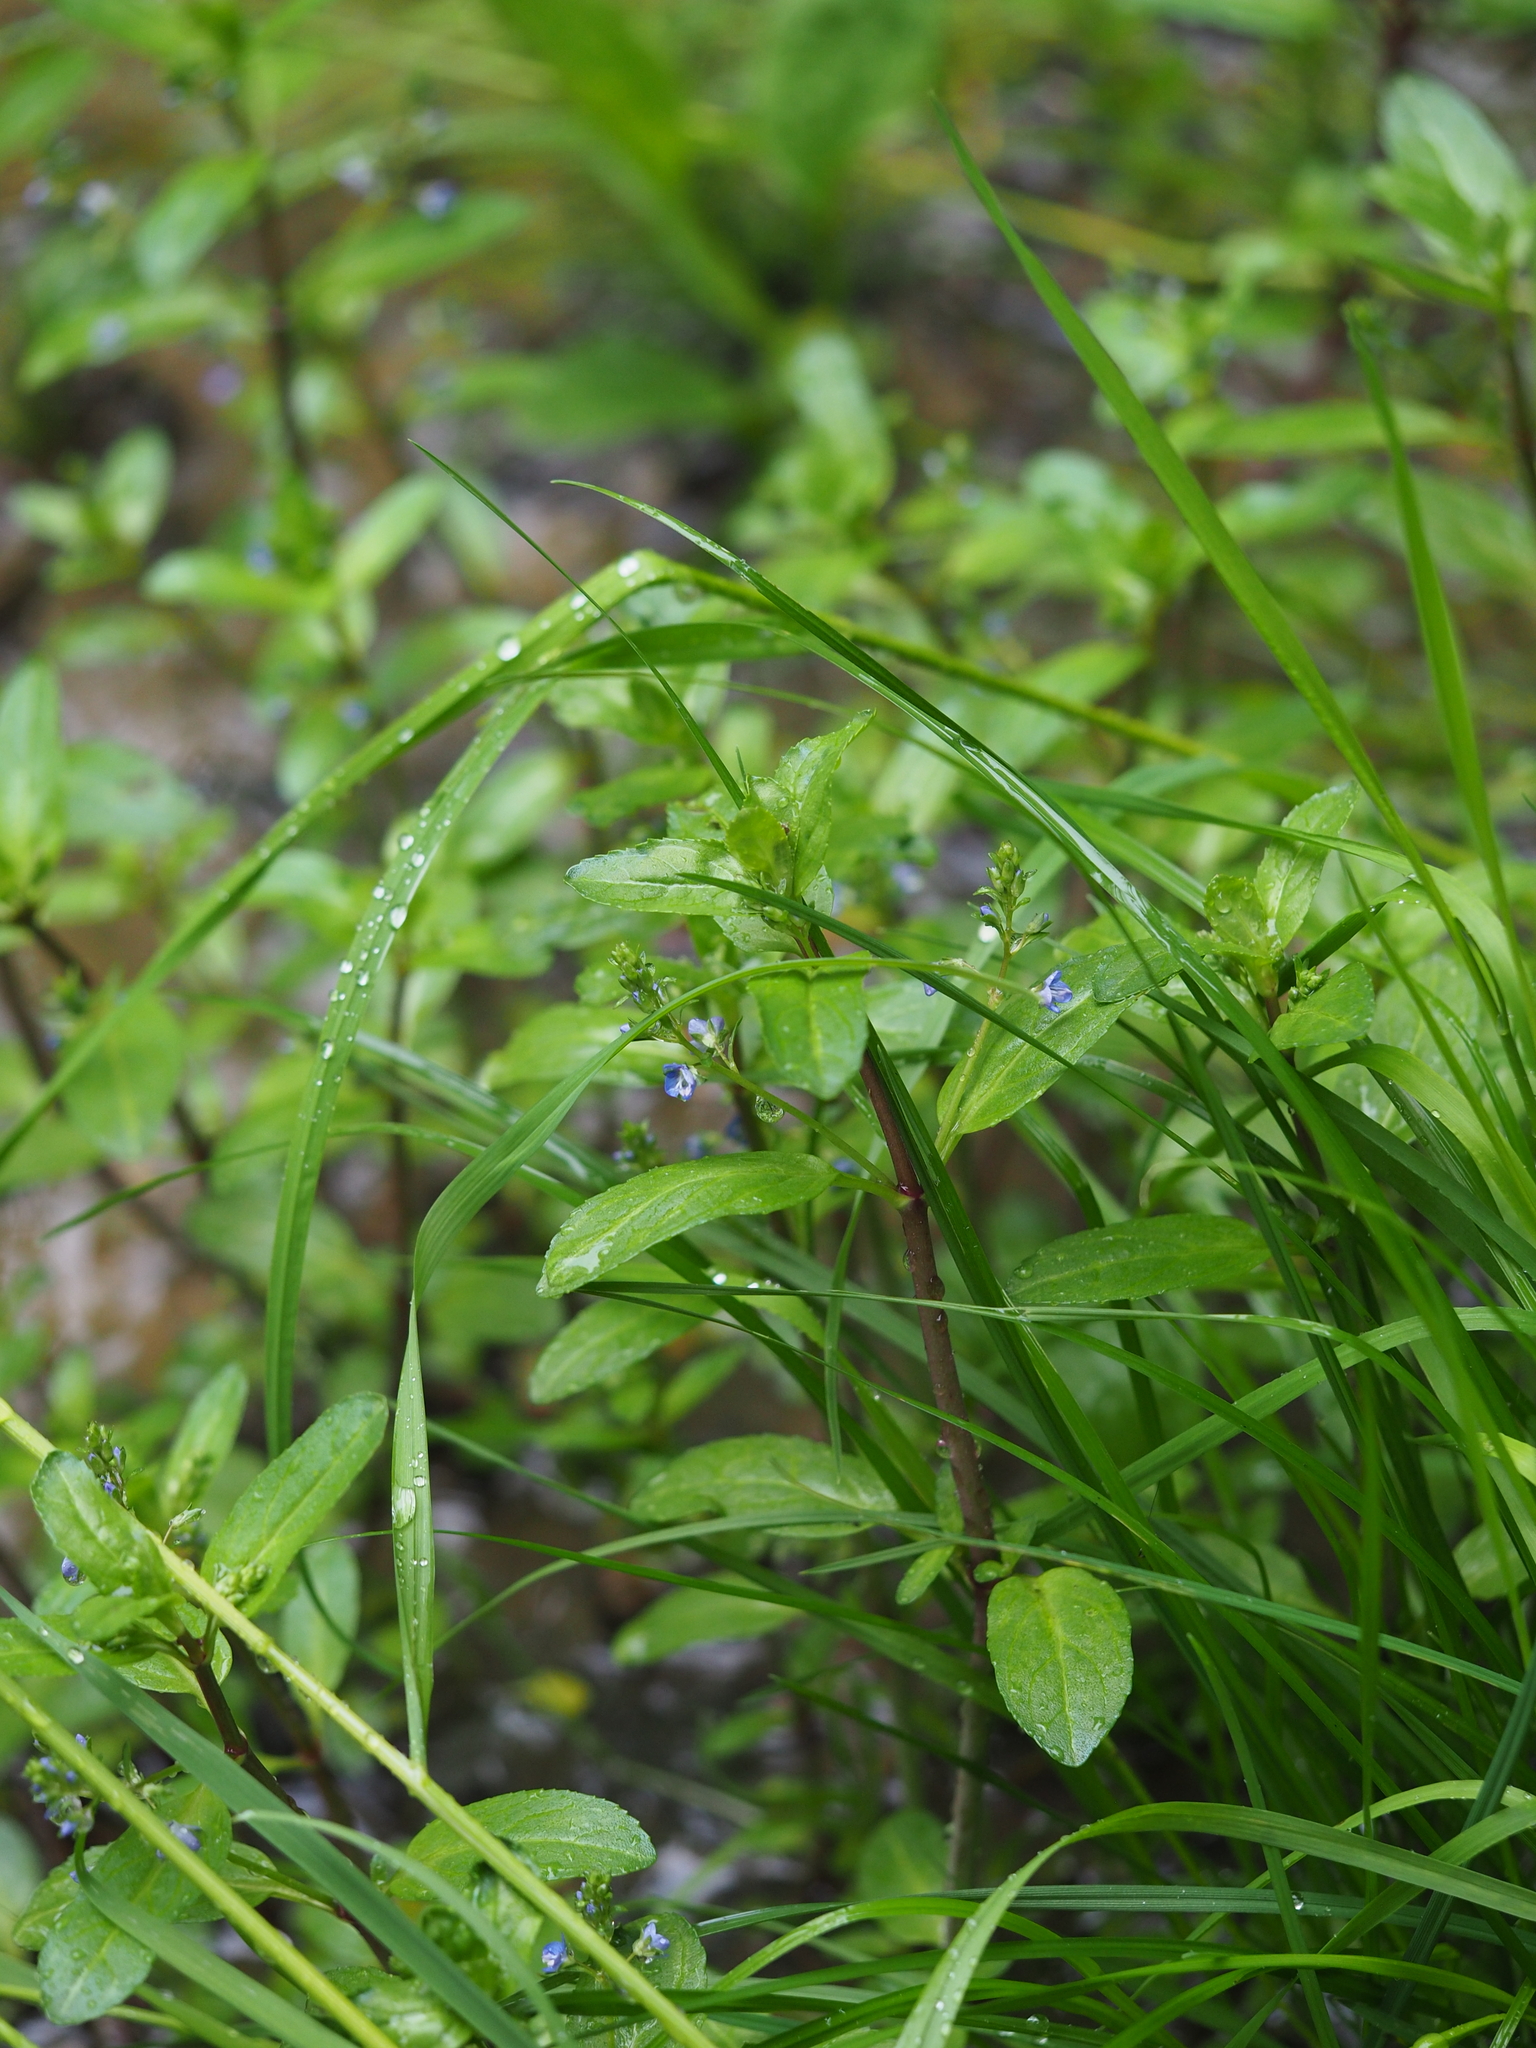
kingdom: Plantae
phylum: Tracheophyta
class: Magnoliopsida
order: Lamiales
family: Plantaginaceae
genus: Veronica
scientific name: Veronica beccabunga
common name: Brooklime
